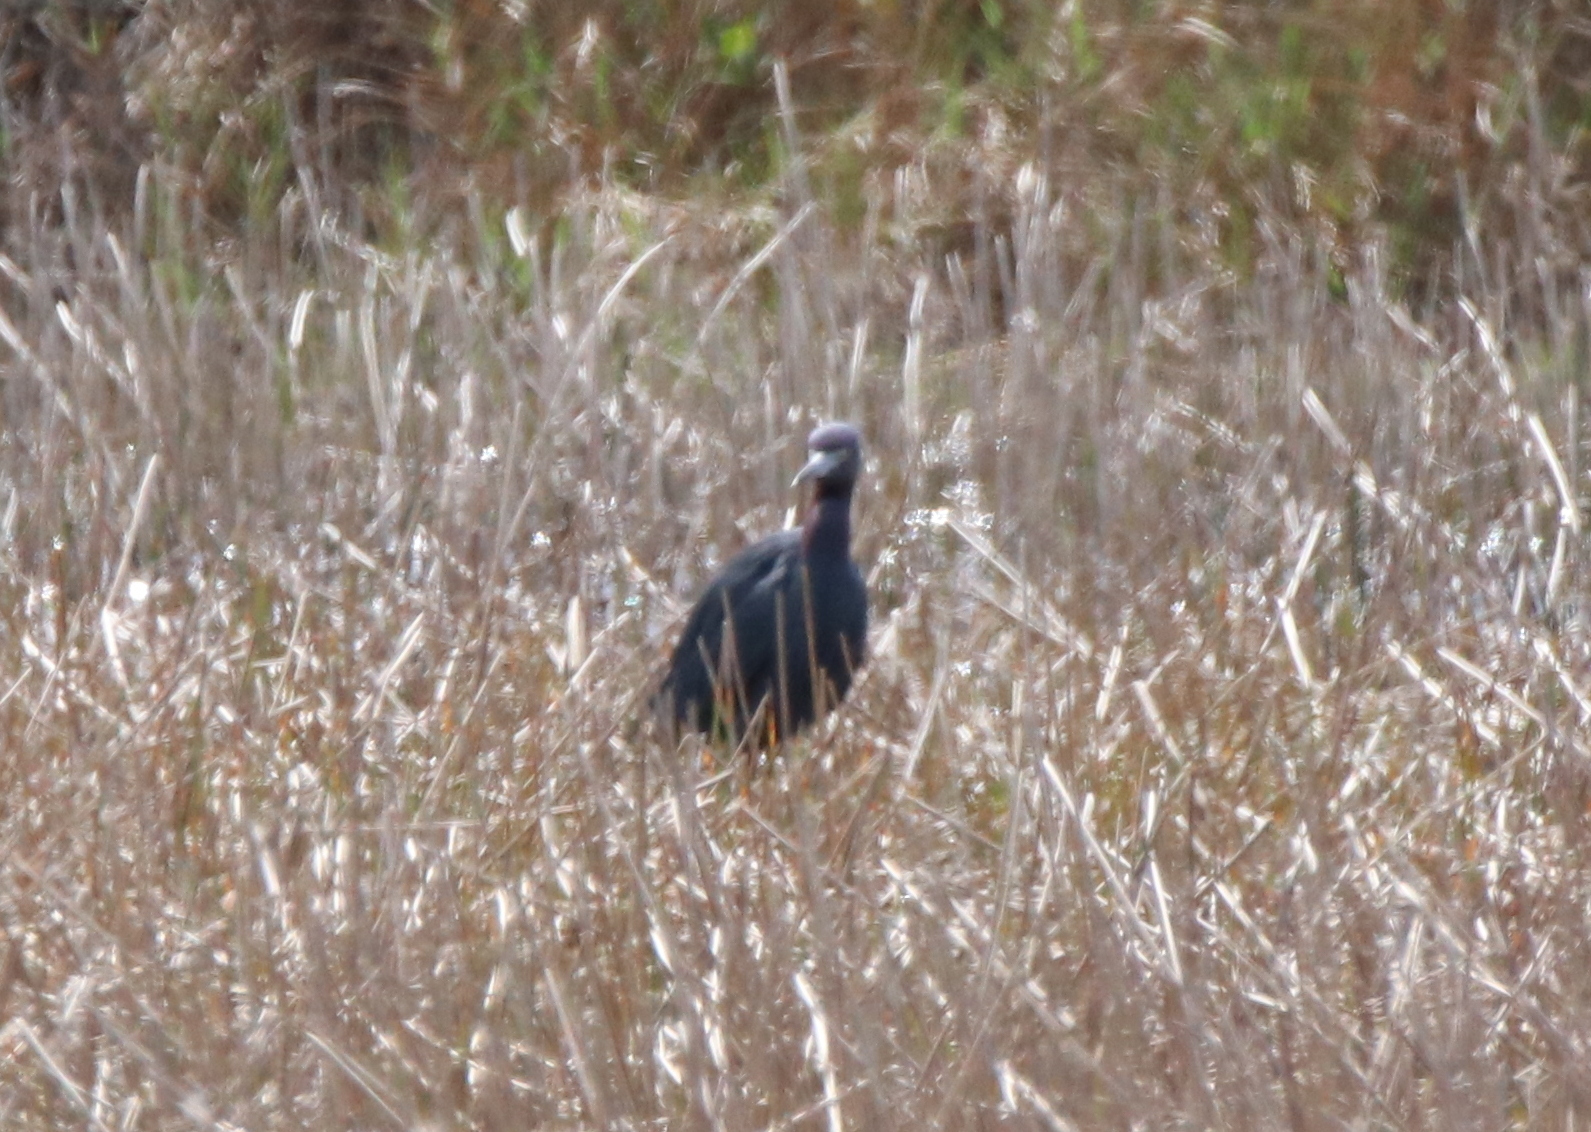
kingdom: Animalia
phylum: Chordata
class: Aves
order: Pelecaniformes
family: Ardeidae
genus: Egretta
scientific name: Egretta caerulea
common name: Little blue heron
